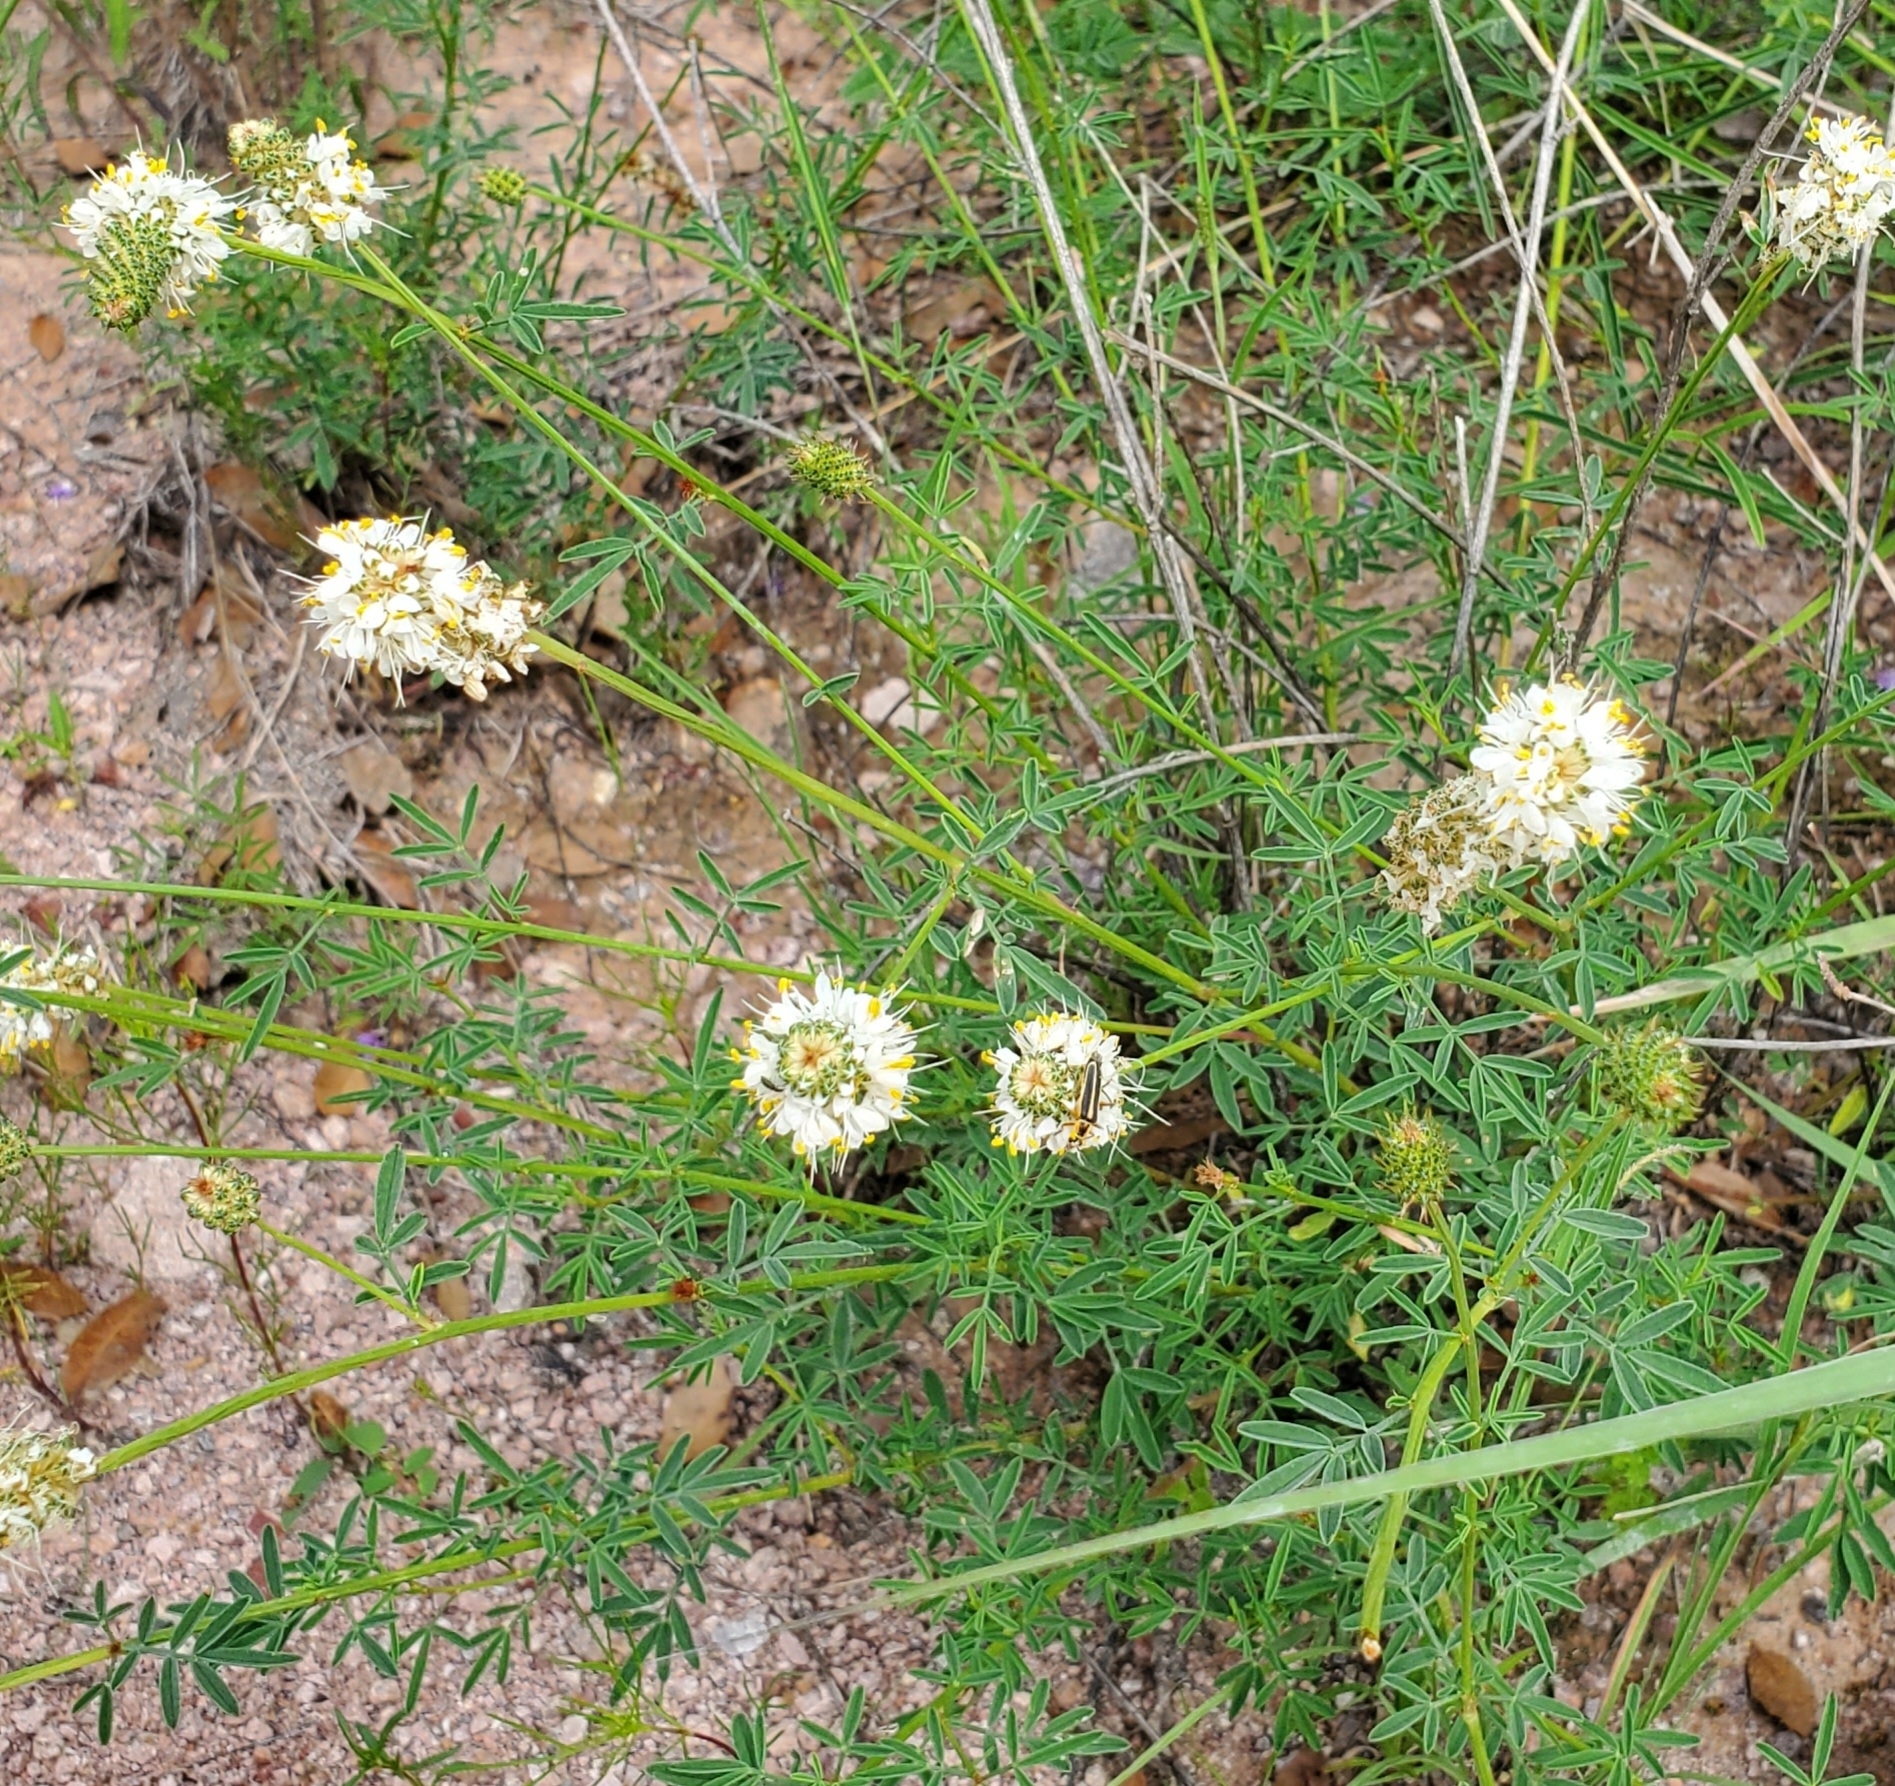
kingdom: Plantae
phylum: Tracheophyta
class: Magnoliopsida
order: Fabales
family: Fabaceae
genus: Dalea
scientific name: Dalea candida
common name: White prairie-clover
